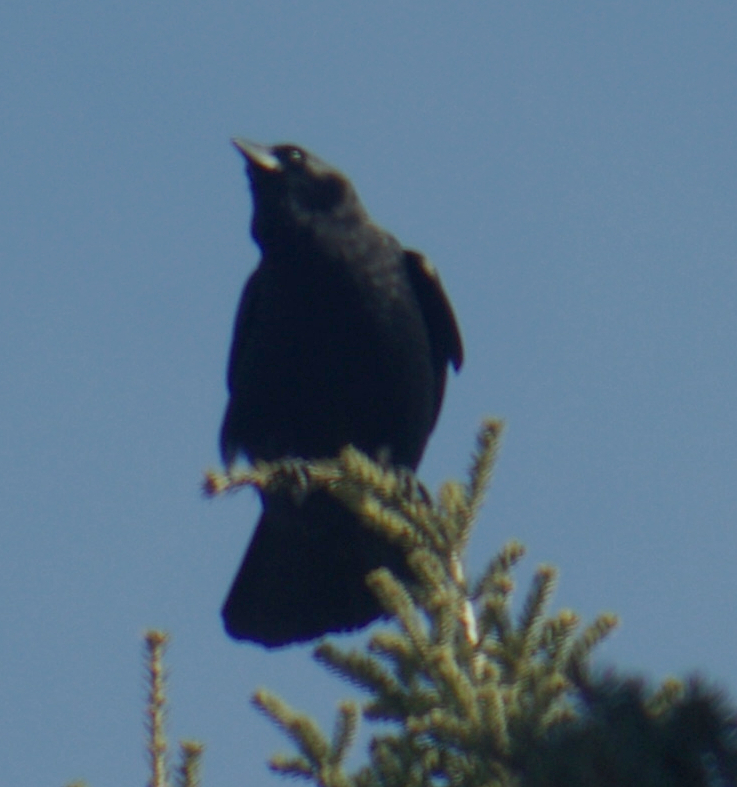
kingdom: Animalia
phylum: Chordata
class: Aves
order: Passeriformes
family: Corvidae
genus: Corvus
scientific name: Corvus brachyrhynchos
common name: American crow
